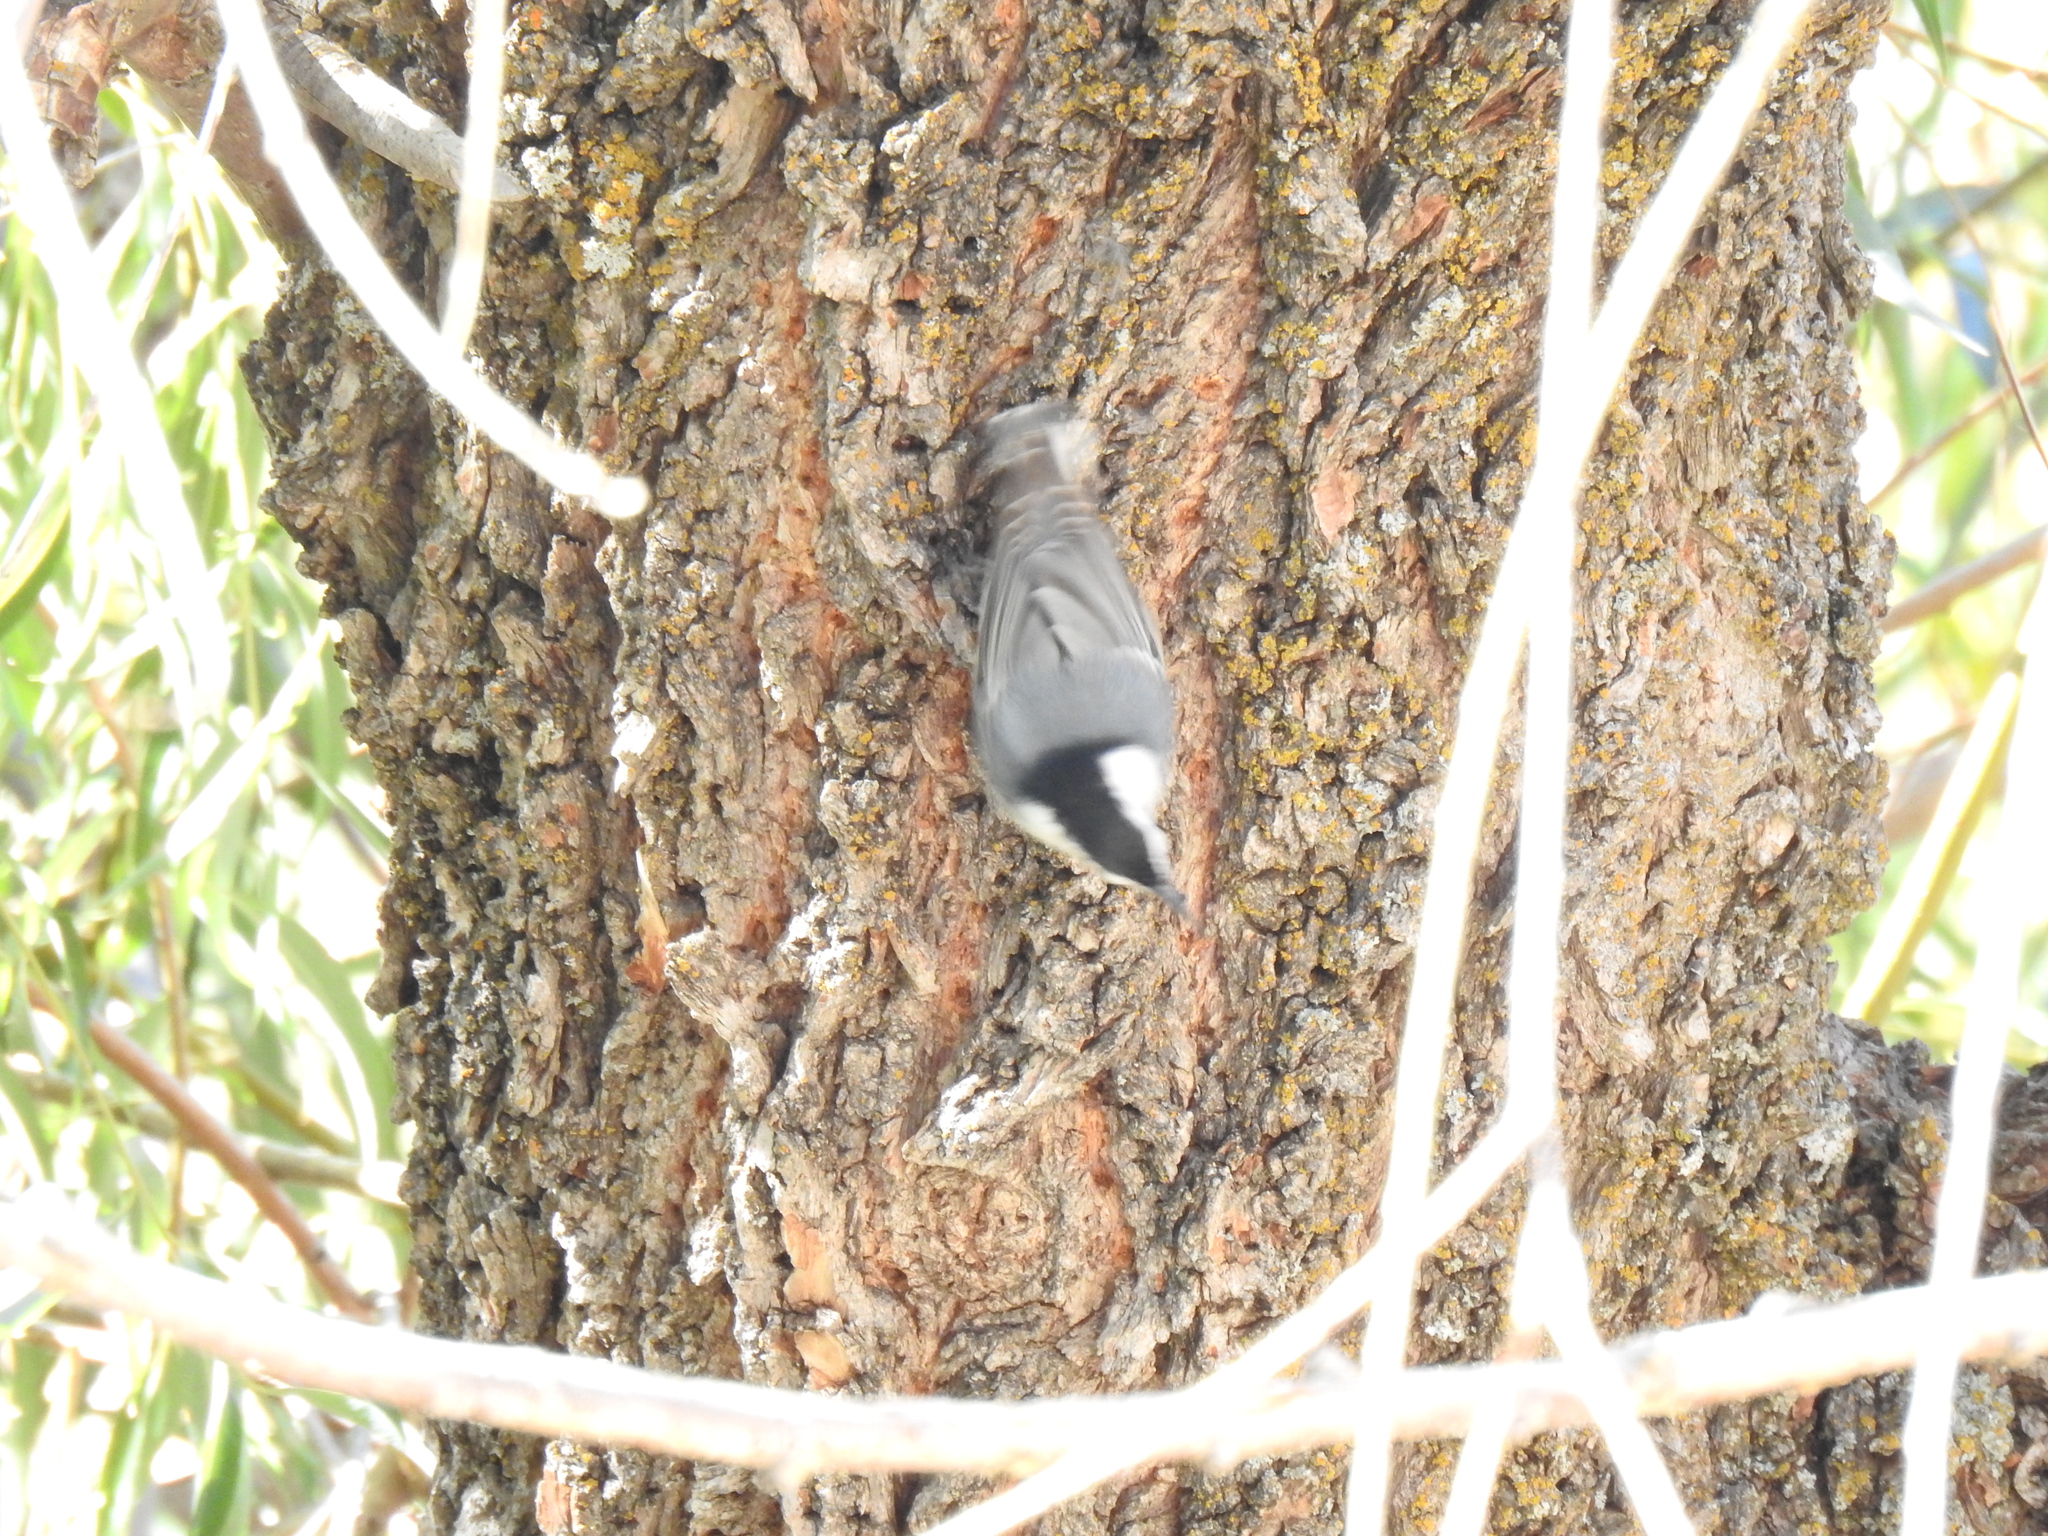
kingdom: Animalia
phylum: Chordata
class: Aves
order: Passeriformes
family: Sittidae
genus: Sitta
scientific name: Sitta carolinensis
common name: White-breasted nuthatch
